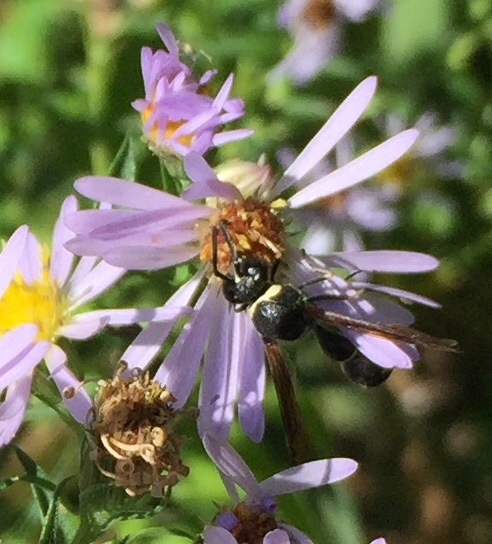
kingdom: Animalia
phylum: Arthropoda
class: Insecta
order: Hymenoptera
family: Vespidae
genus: Eumenes
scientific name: Eumenes fraternus
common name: Fraternal potter wasp
